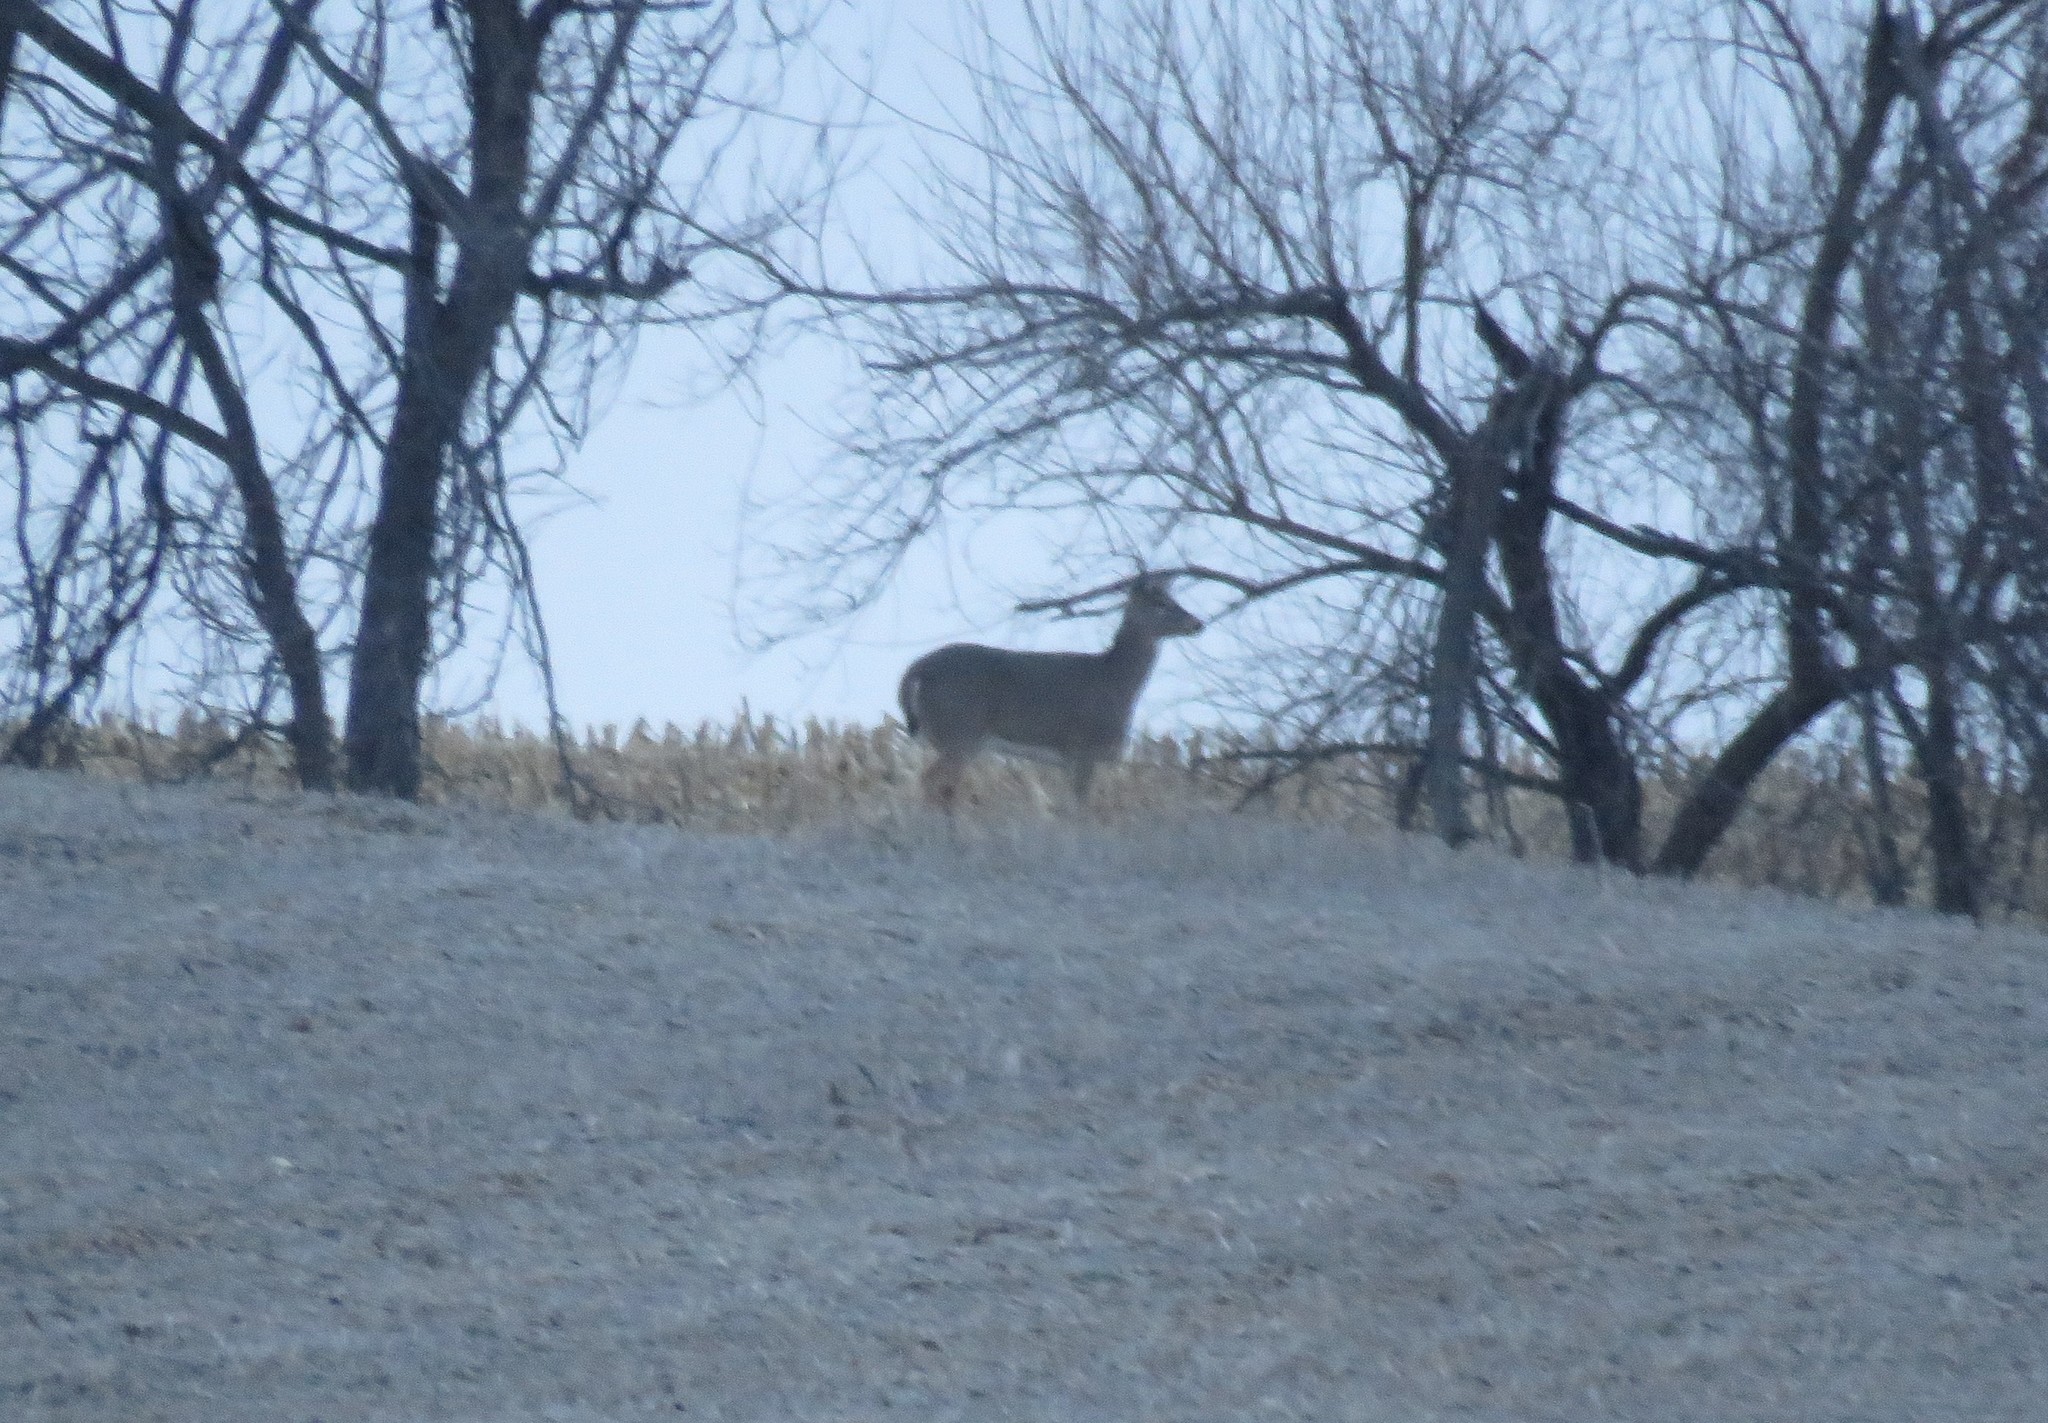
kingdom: Animalia
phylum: Chordata
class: Mammalia
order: Artiodactyla
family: Cervidae
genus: Odocoileus
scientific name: Odocoileus virginianus
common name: White-tailed deer
